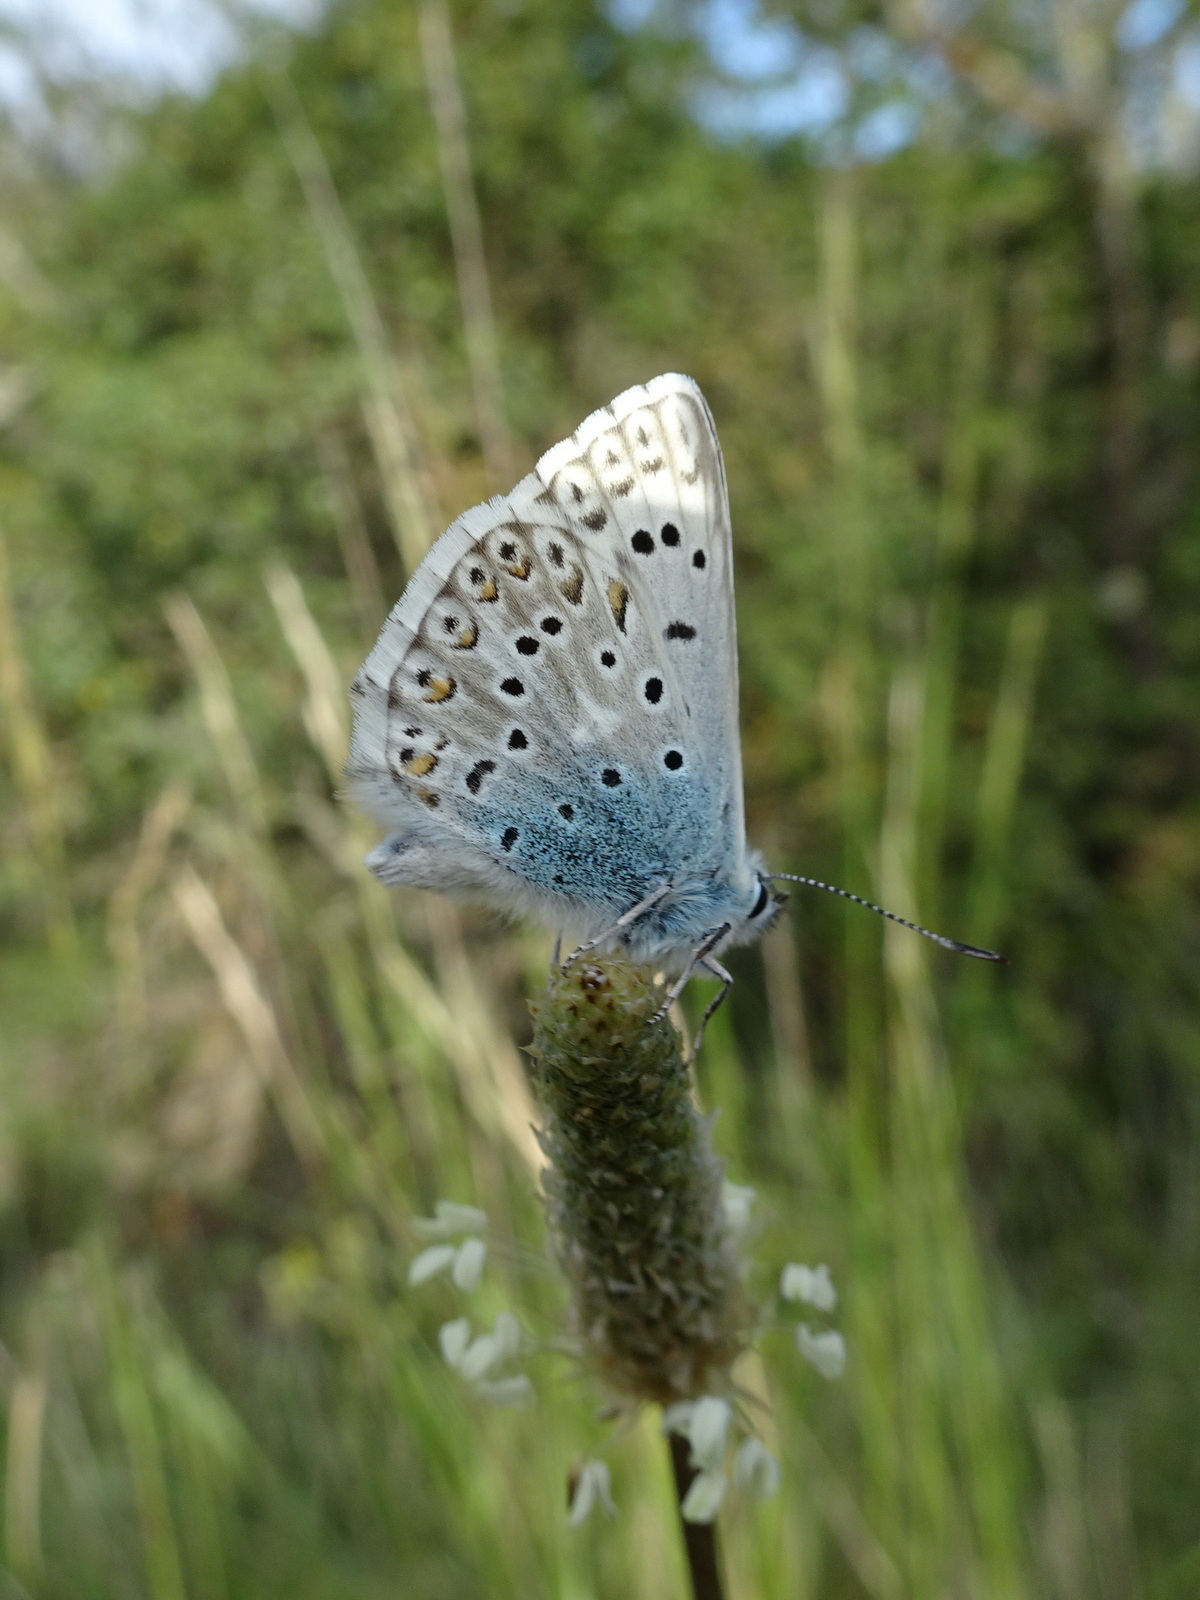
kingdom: Animalia
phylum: Arthropoda
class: Insecta
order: Lepidoptera
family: Lycaenidae
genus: Lysandra
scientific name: Lysandra hispana
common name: Provence chalkhill blue
